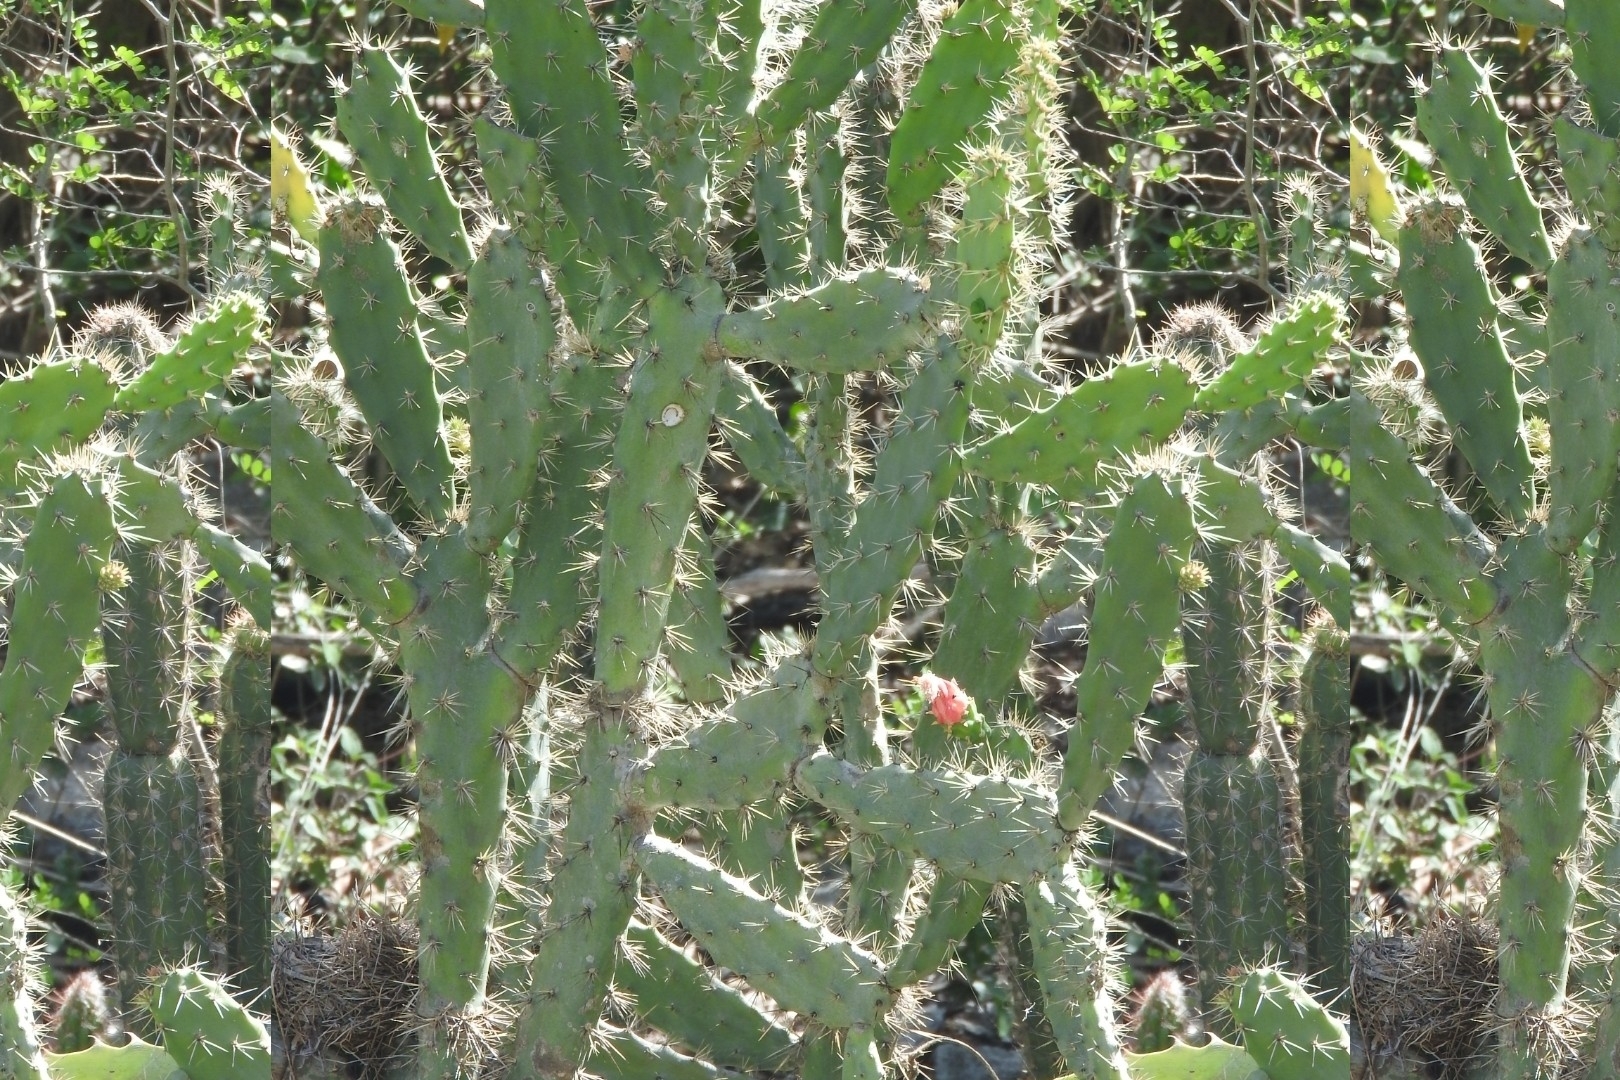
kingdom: Plantae
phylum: Tracheophyta
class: Magnoliopsida
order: Caryophyllales
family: Cactaceae
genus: Opuntia
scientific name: Opuntia hyptiacantha
